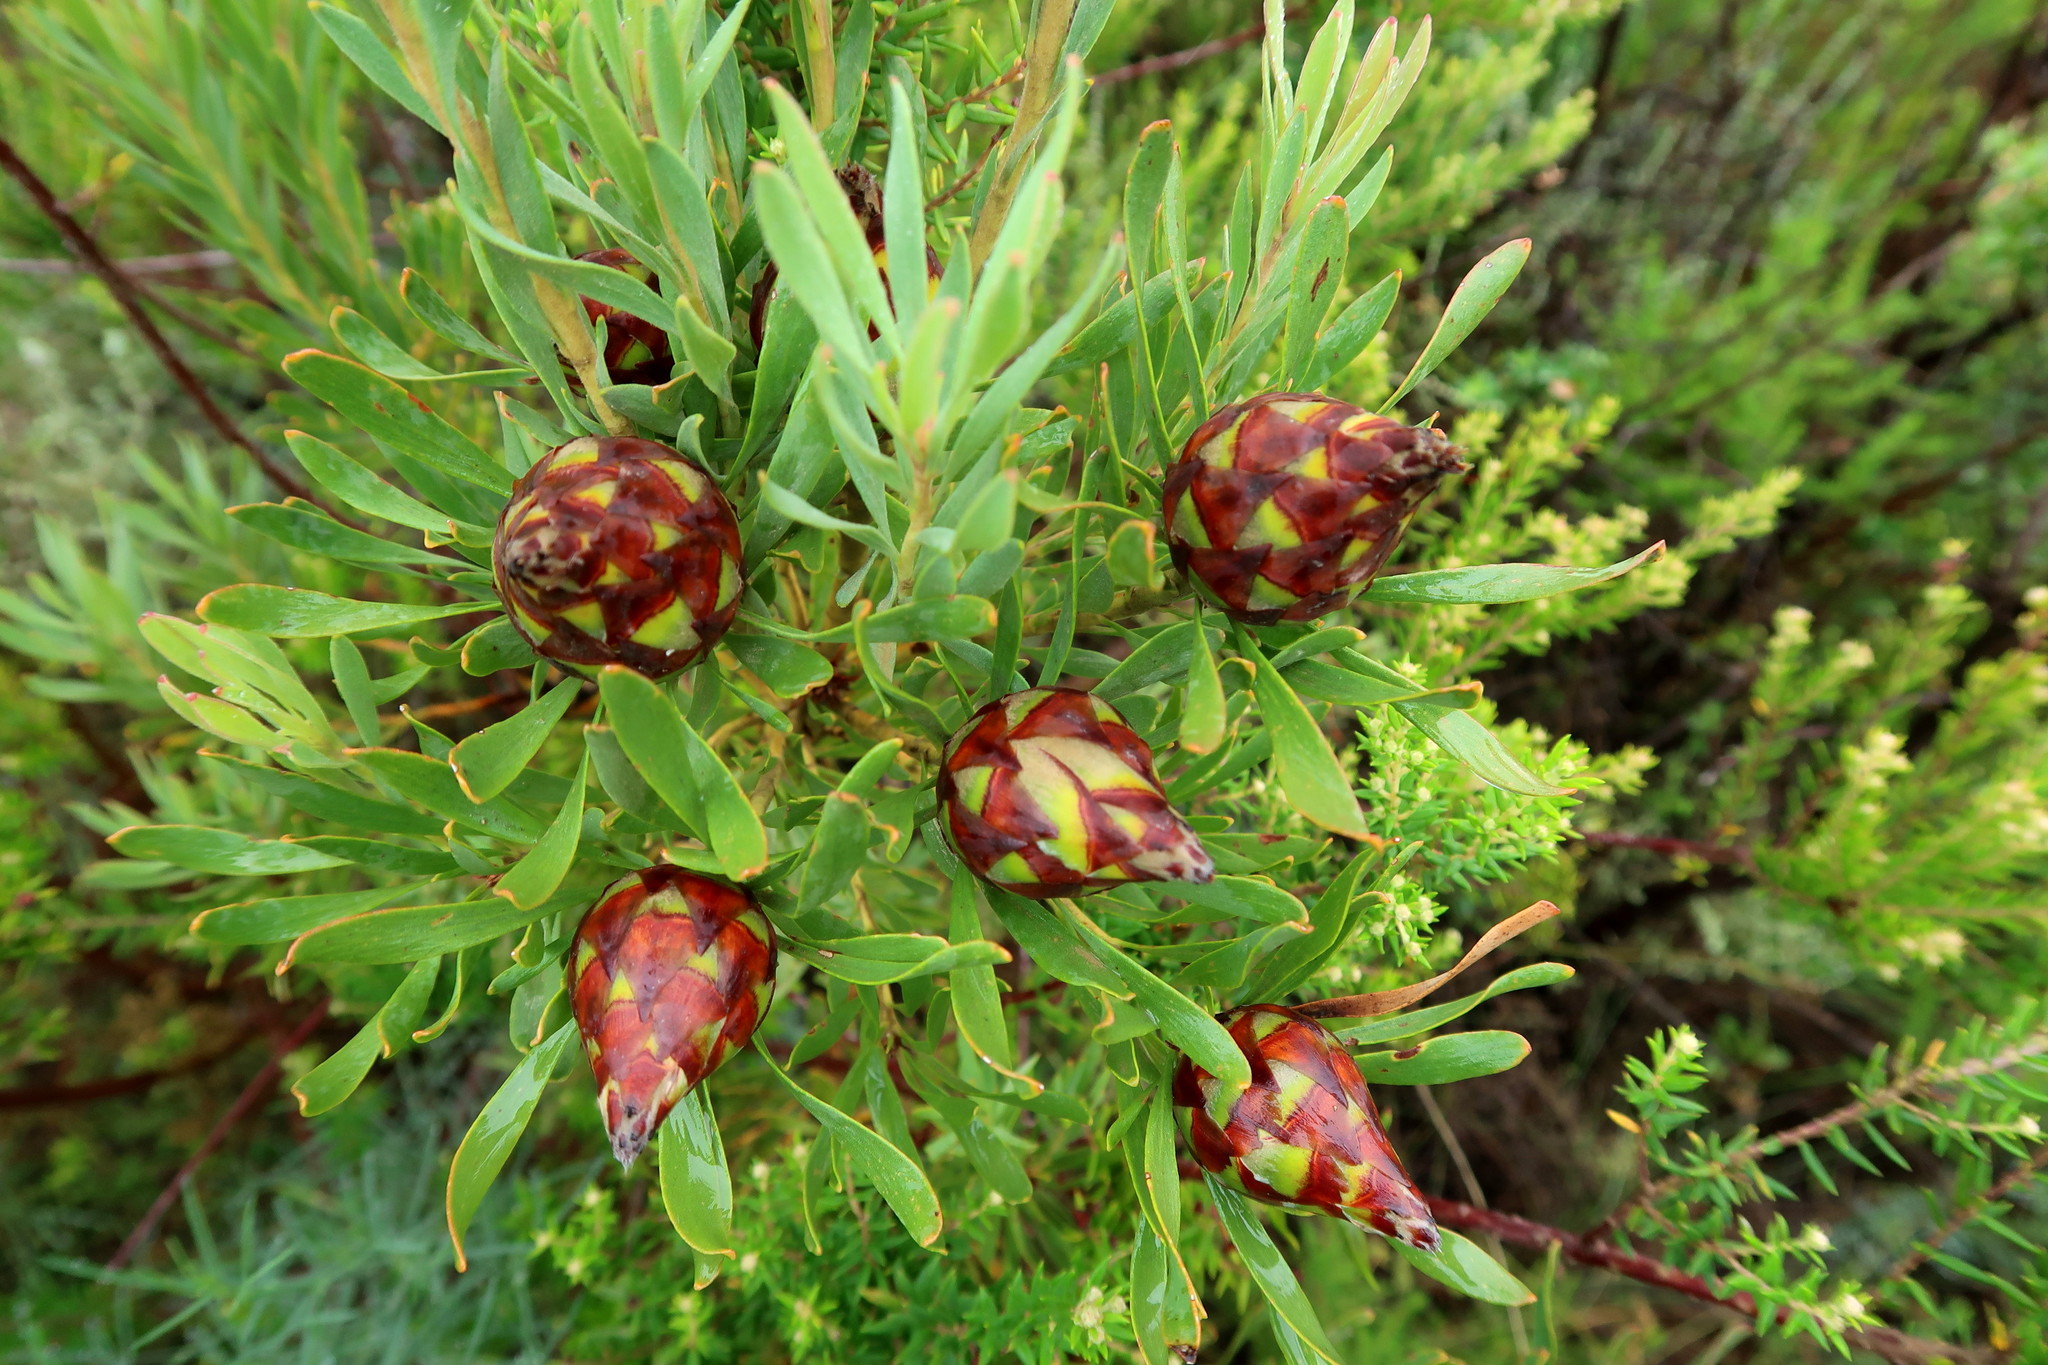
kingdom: Plantae
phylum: Tracheophyta
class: Magnoliopsida
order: Proteales
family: Proteaceae
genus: Leucadendron
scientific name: Leucadendron rubrum
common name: Spinning top
